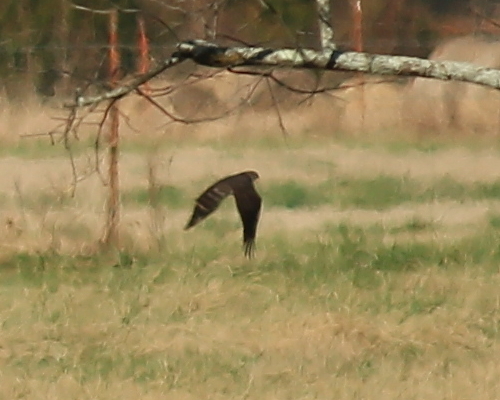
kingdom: Animalia
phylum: Chordata
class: Aves
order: Accipitriformes
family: Accipitridae
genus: Accipiter
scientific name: Accipiter cooperii
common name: Cooper's hawk
